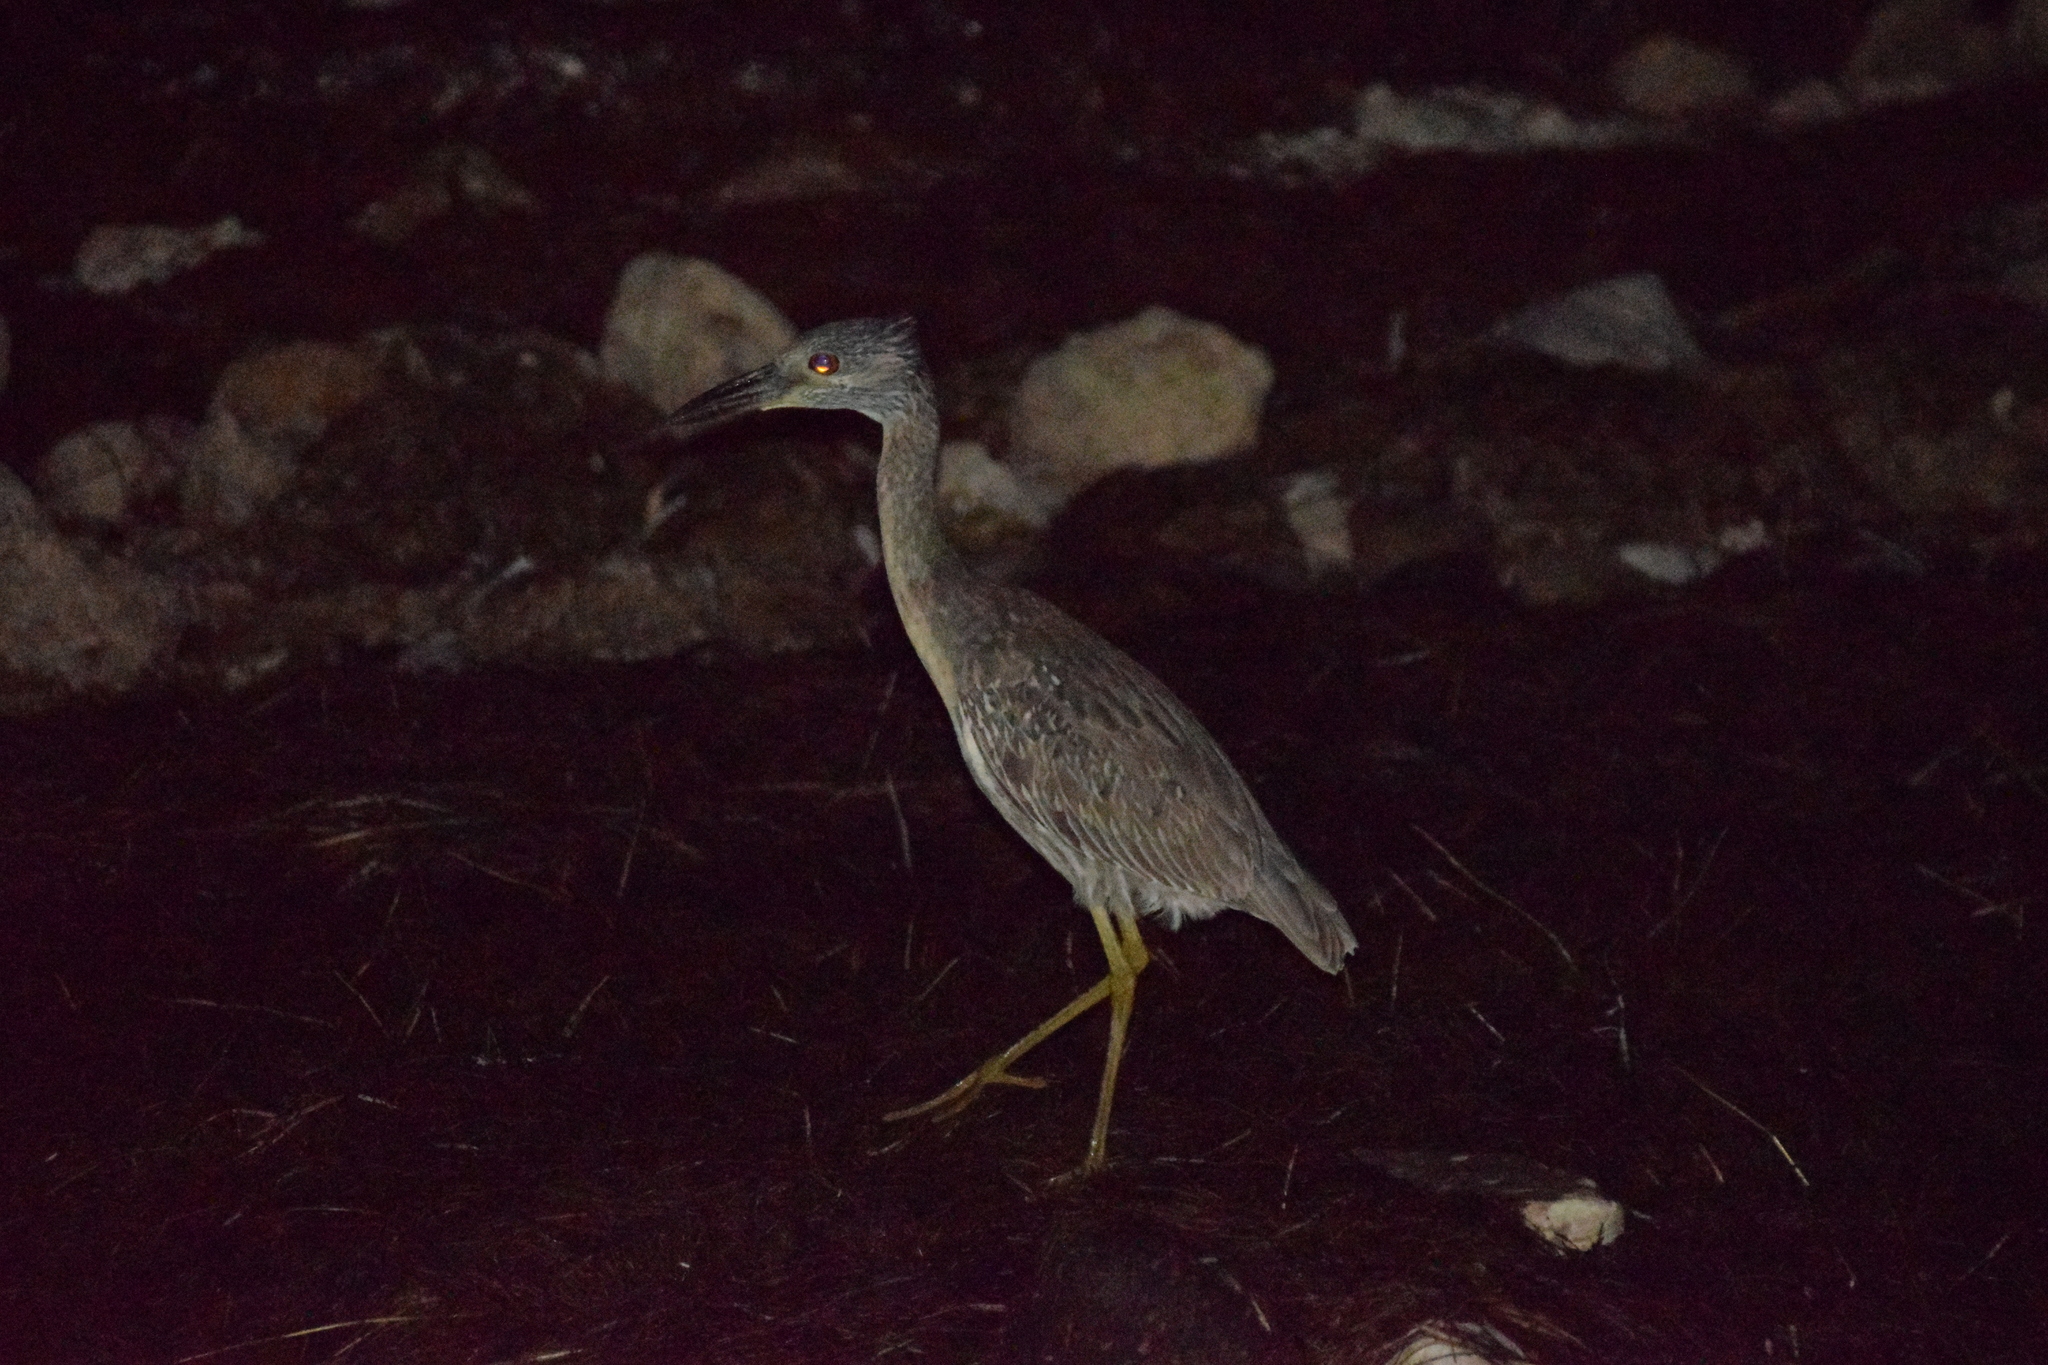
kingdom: Animalia
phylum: Chordata
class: Aves
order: Pelecaniformes
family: Ardeidae
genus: Nyctanassa
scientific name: Nyctanassa violacea
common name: Yellow-crowned night heron
